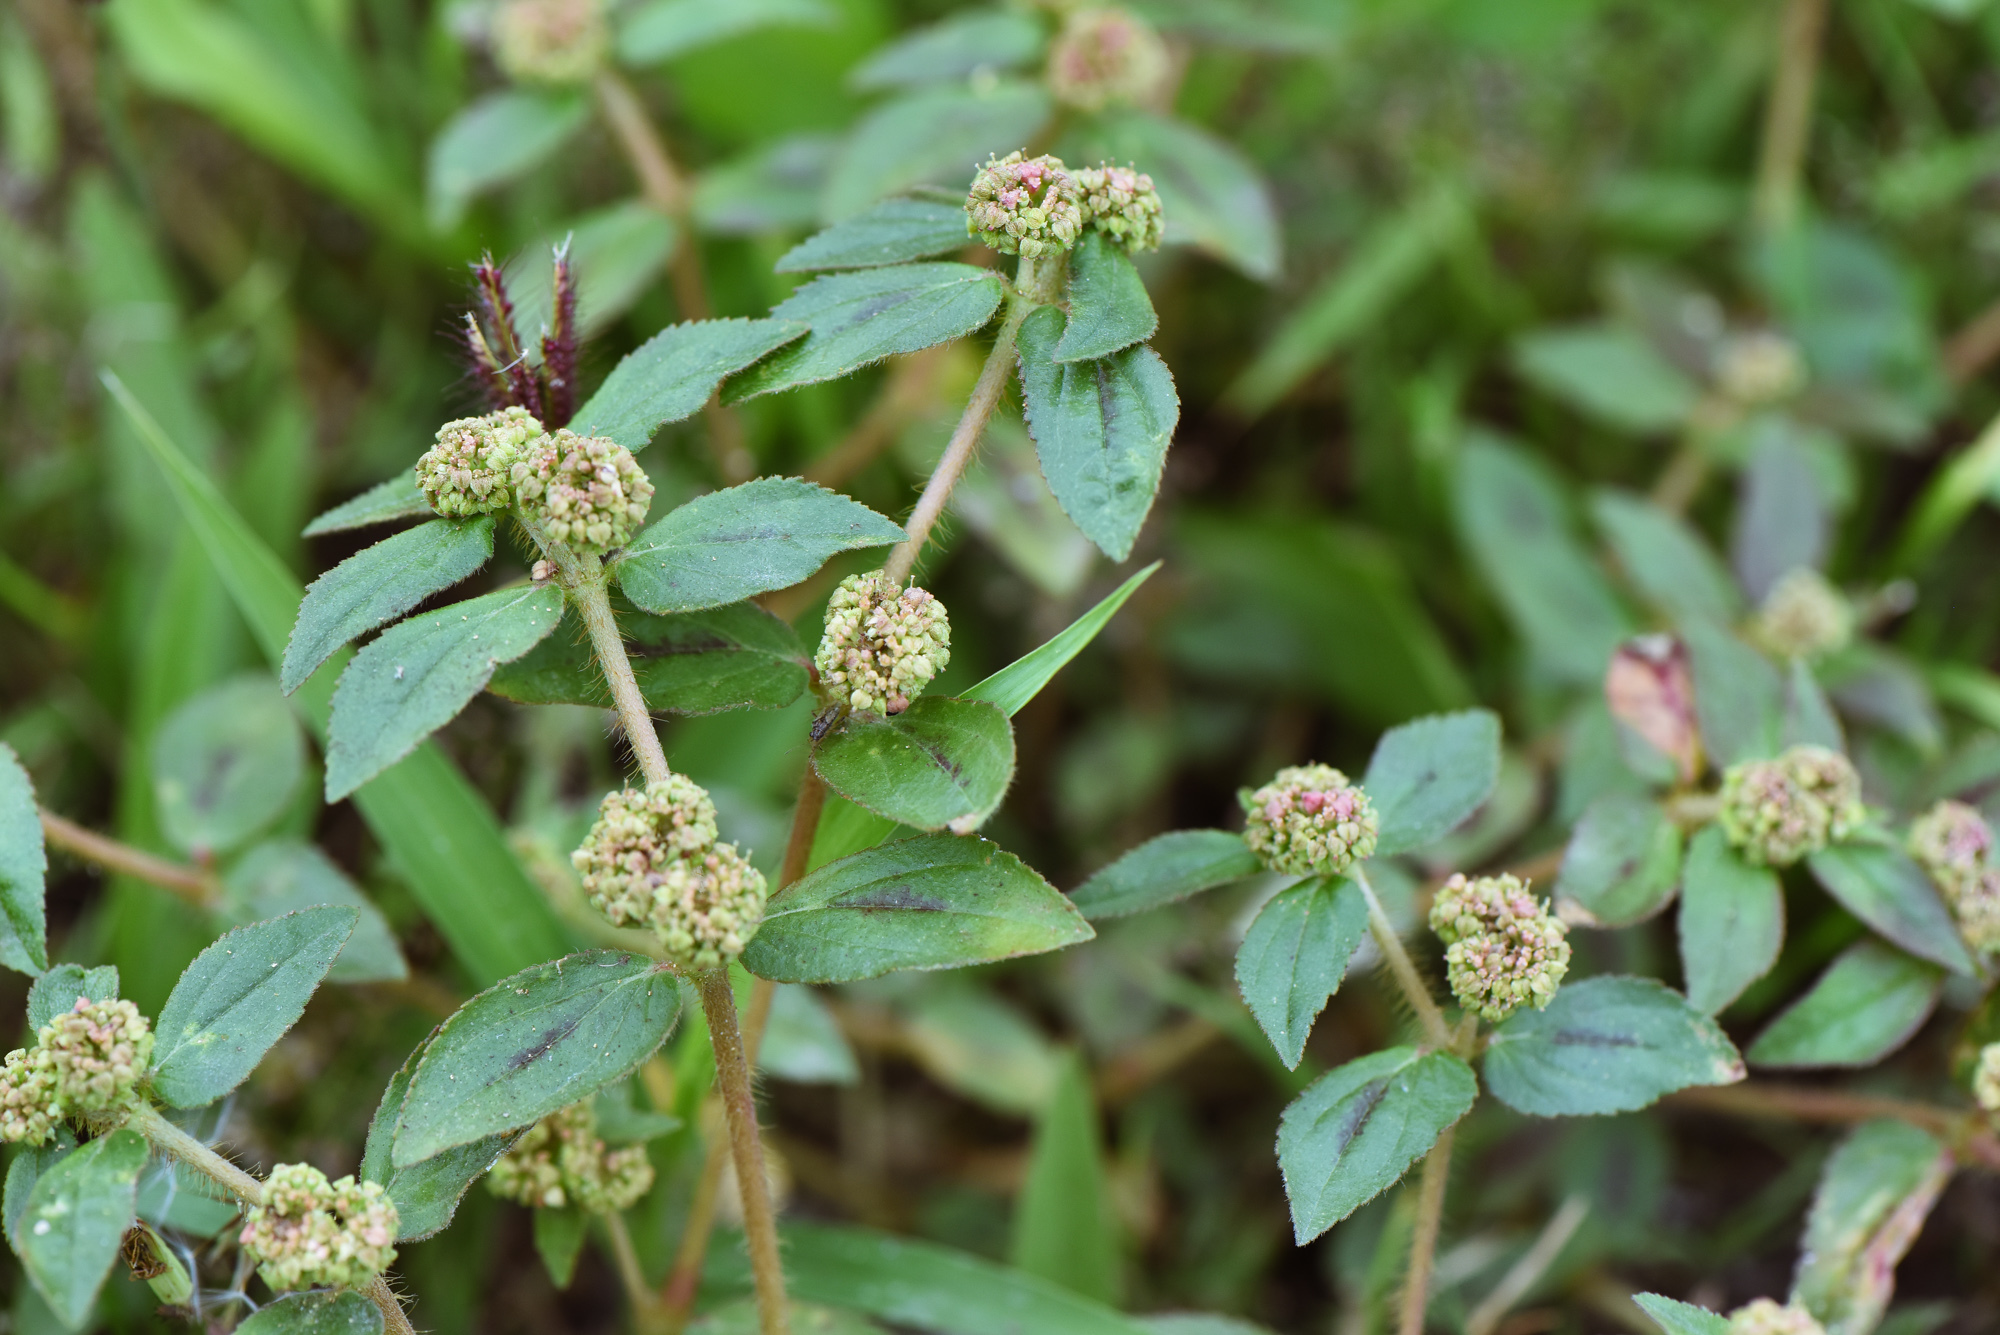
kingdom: Plantae
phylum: Tracheophyta
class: Magnoliopsida
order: Malpighiales
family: Euphorbiaceae
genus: Euphorbia
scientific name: Euphorbia hirta
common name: Pillpod sandmat
